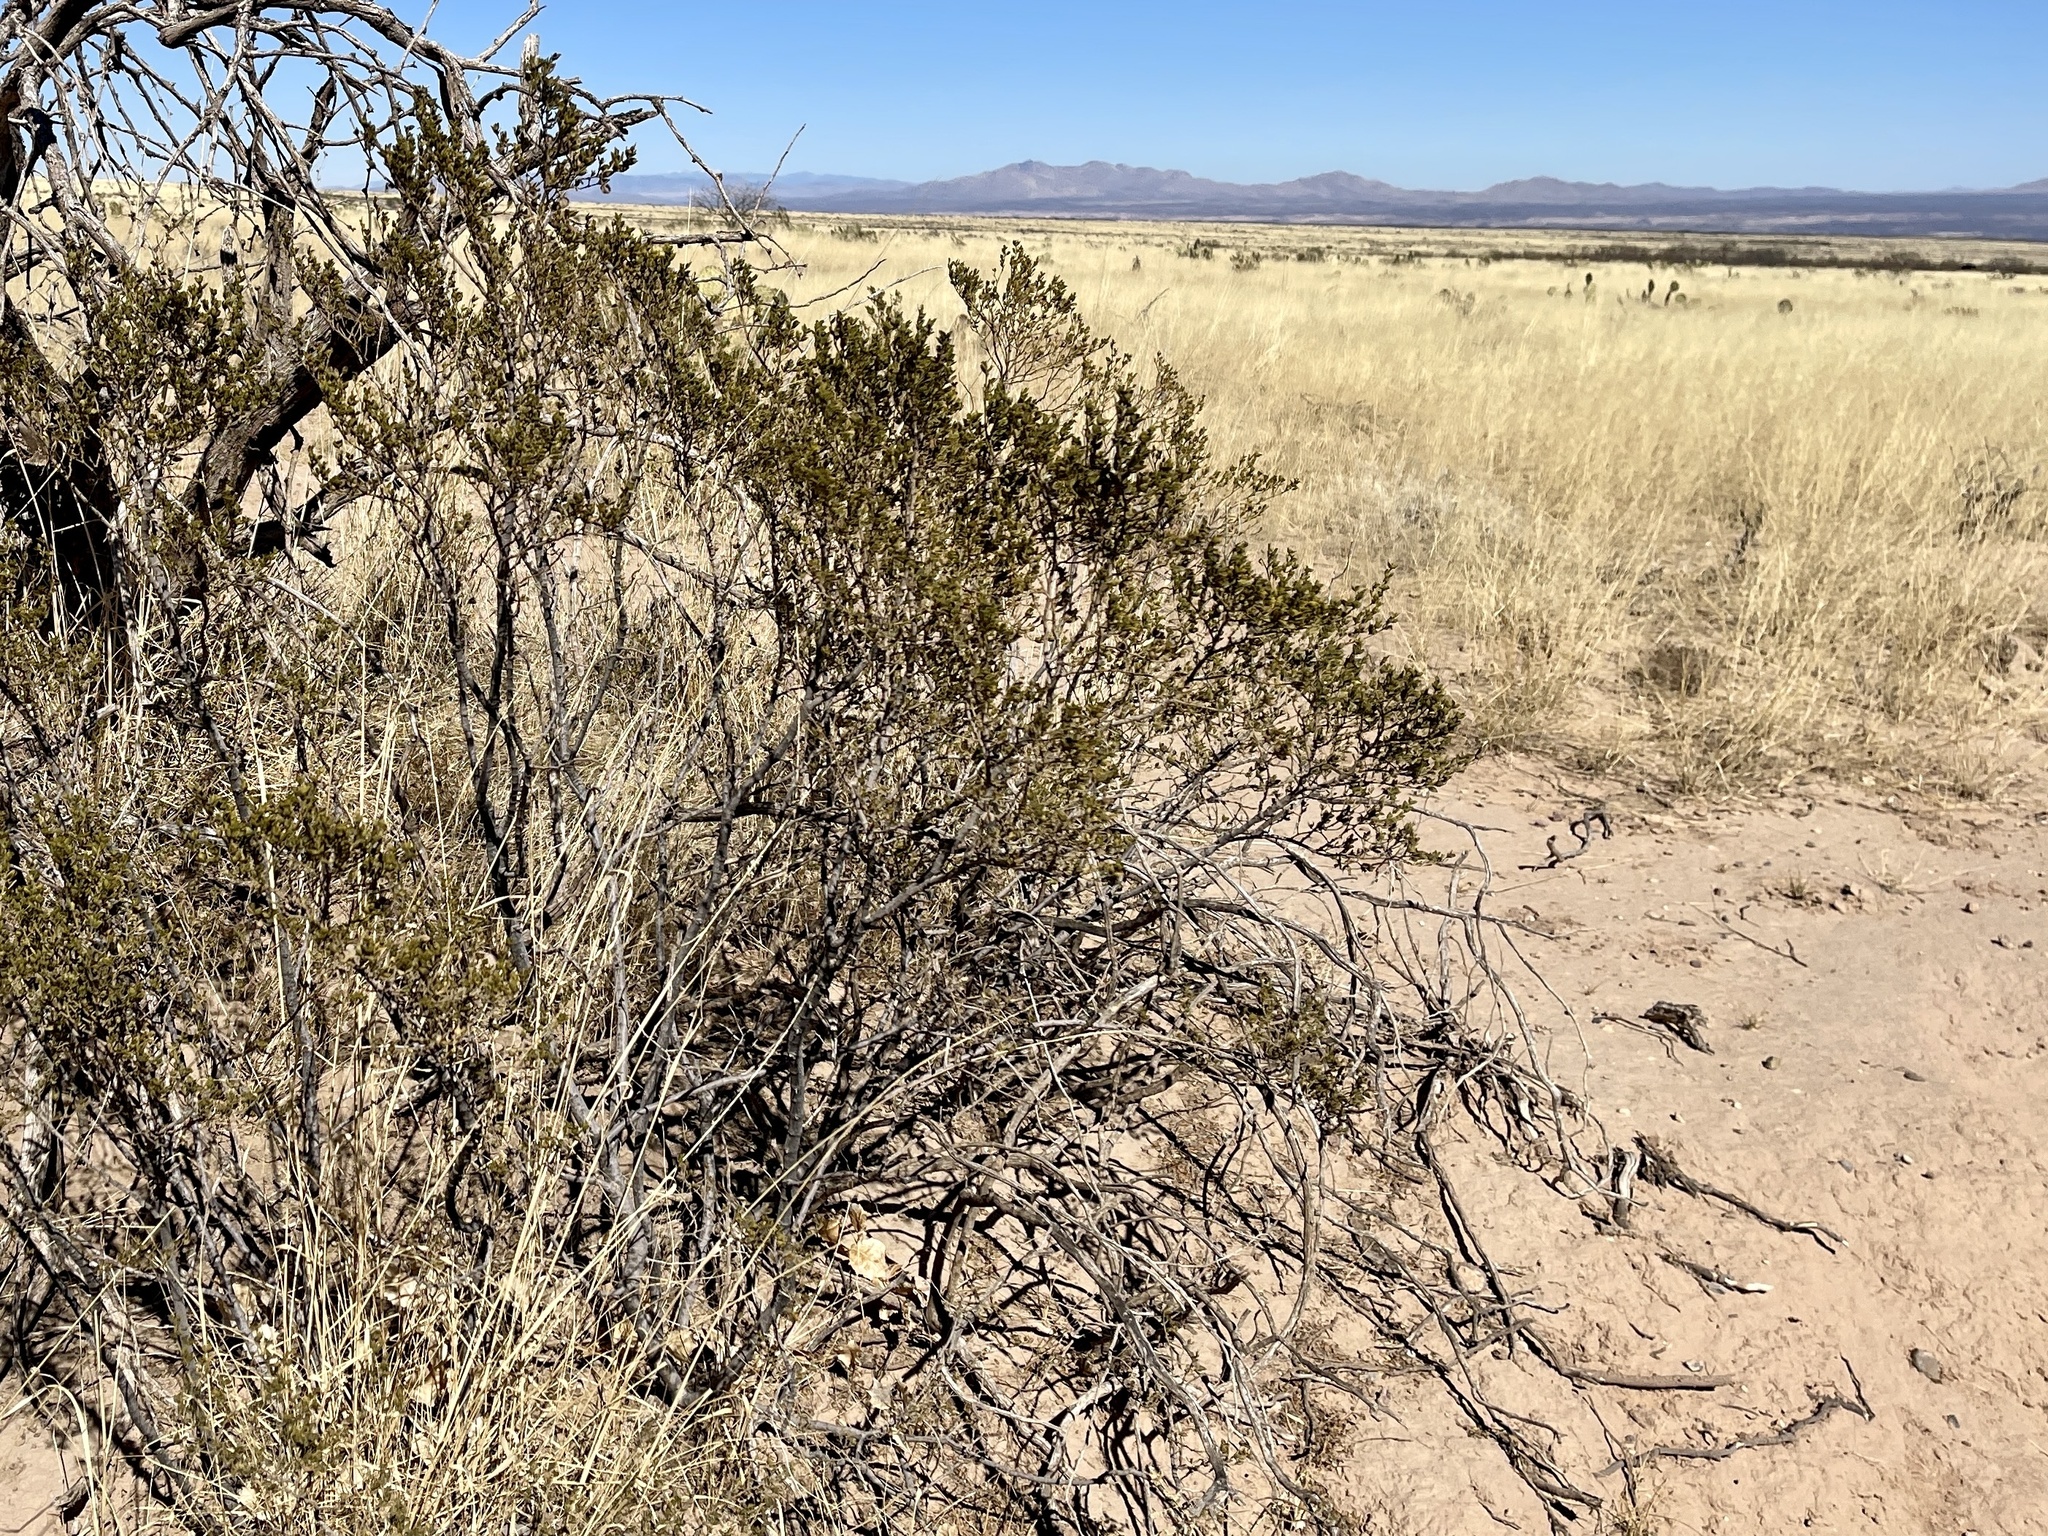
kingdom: Plantae
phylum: Tracheophyta
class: Magnoliopsida
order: Zygophyllales
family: Zygophyllaceae
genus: Larrea
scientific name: Larrea tridentata
